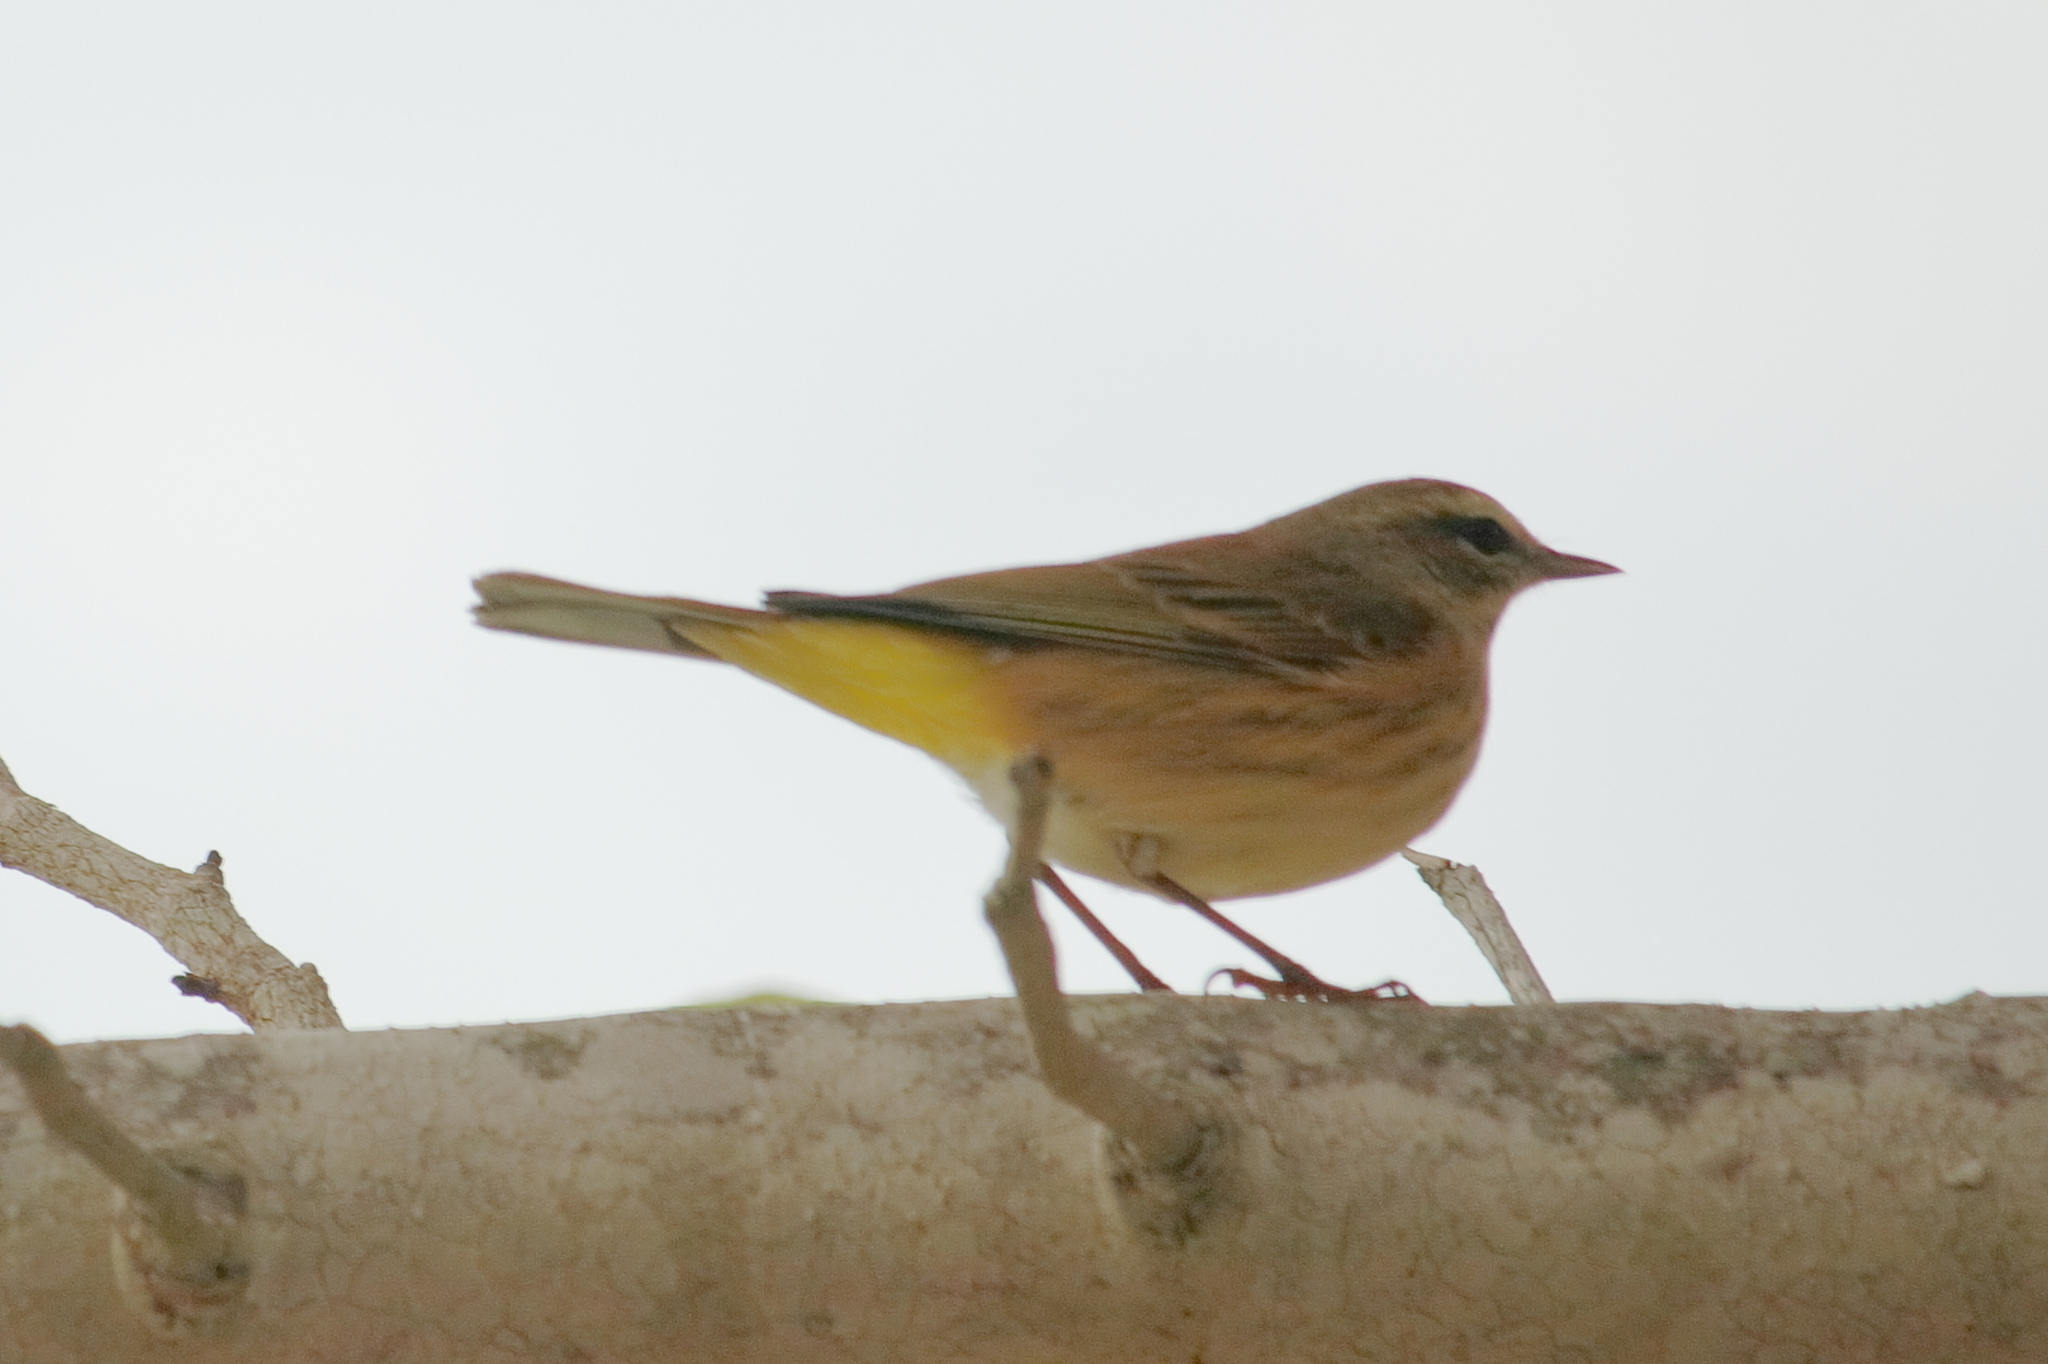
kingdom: Animalia
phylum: Chordata
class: Aves
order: Passeriformes
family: Parulidae
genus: Setophaga
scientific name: Setophaga palmarum
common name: Palm warbler
